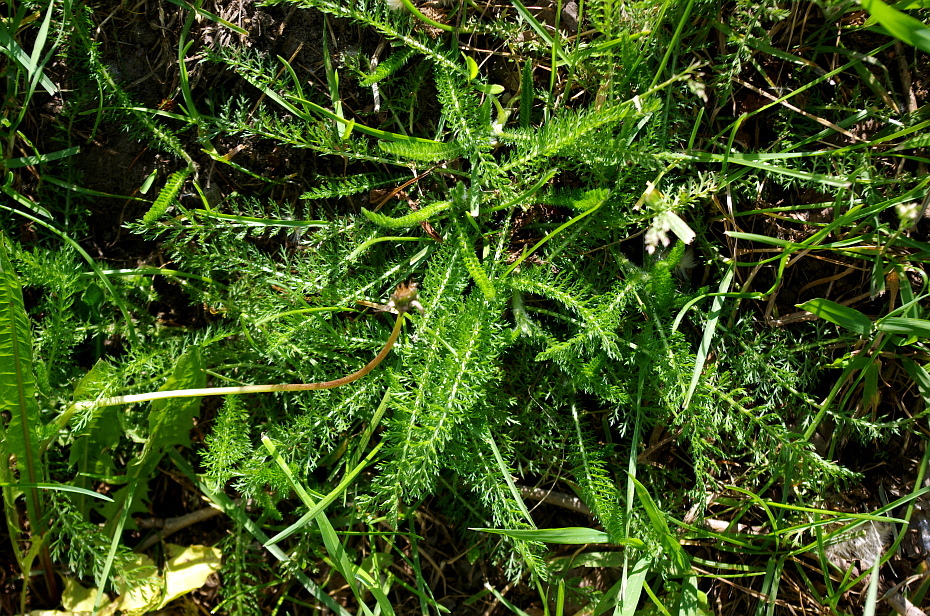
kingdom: Plantae
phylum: Tracheophyta
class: Magnoliopsida
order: Asterales
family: Asteraceae
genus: Achillea
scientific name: Achillea millefolium
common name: Yarrow
